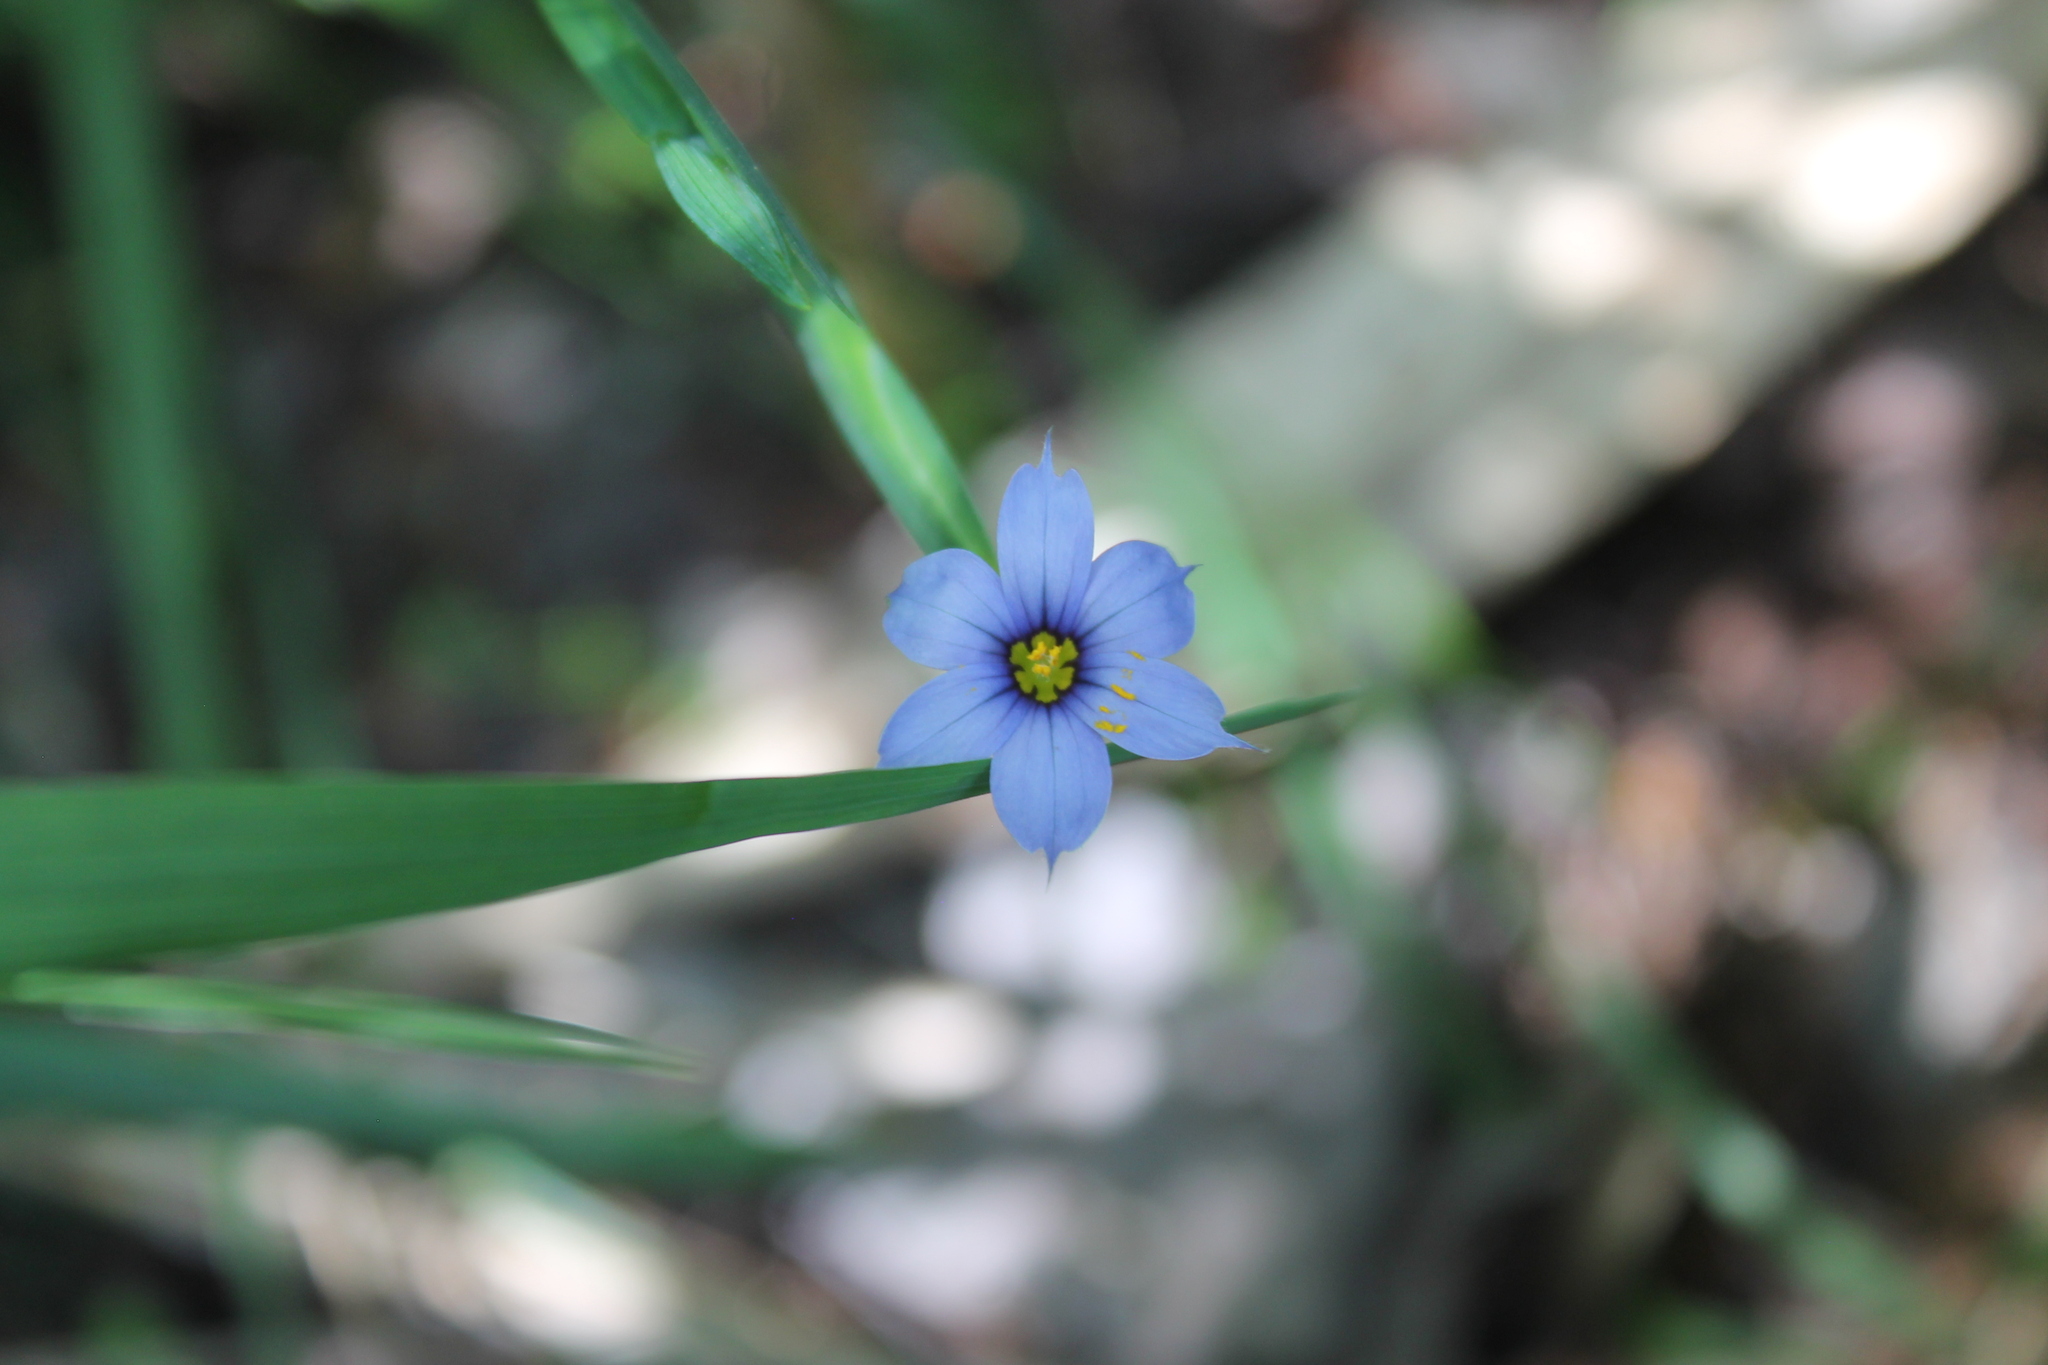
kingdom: Plantae
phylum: Tracheophyta
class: Liliopsida
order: Asparagales
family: Iridaceae
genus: Sisyrinchium
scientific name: Sisyrinchium angustifolium
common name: Narrow-leaf blue-eyed-grass
